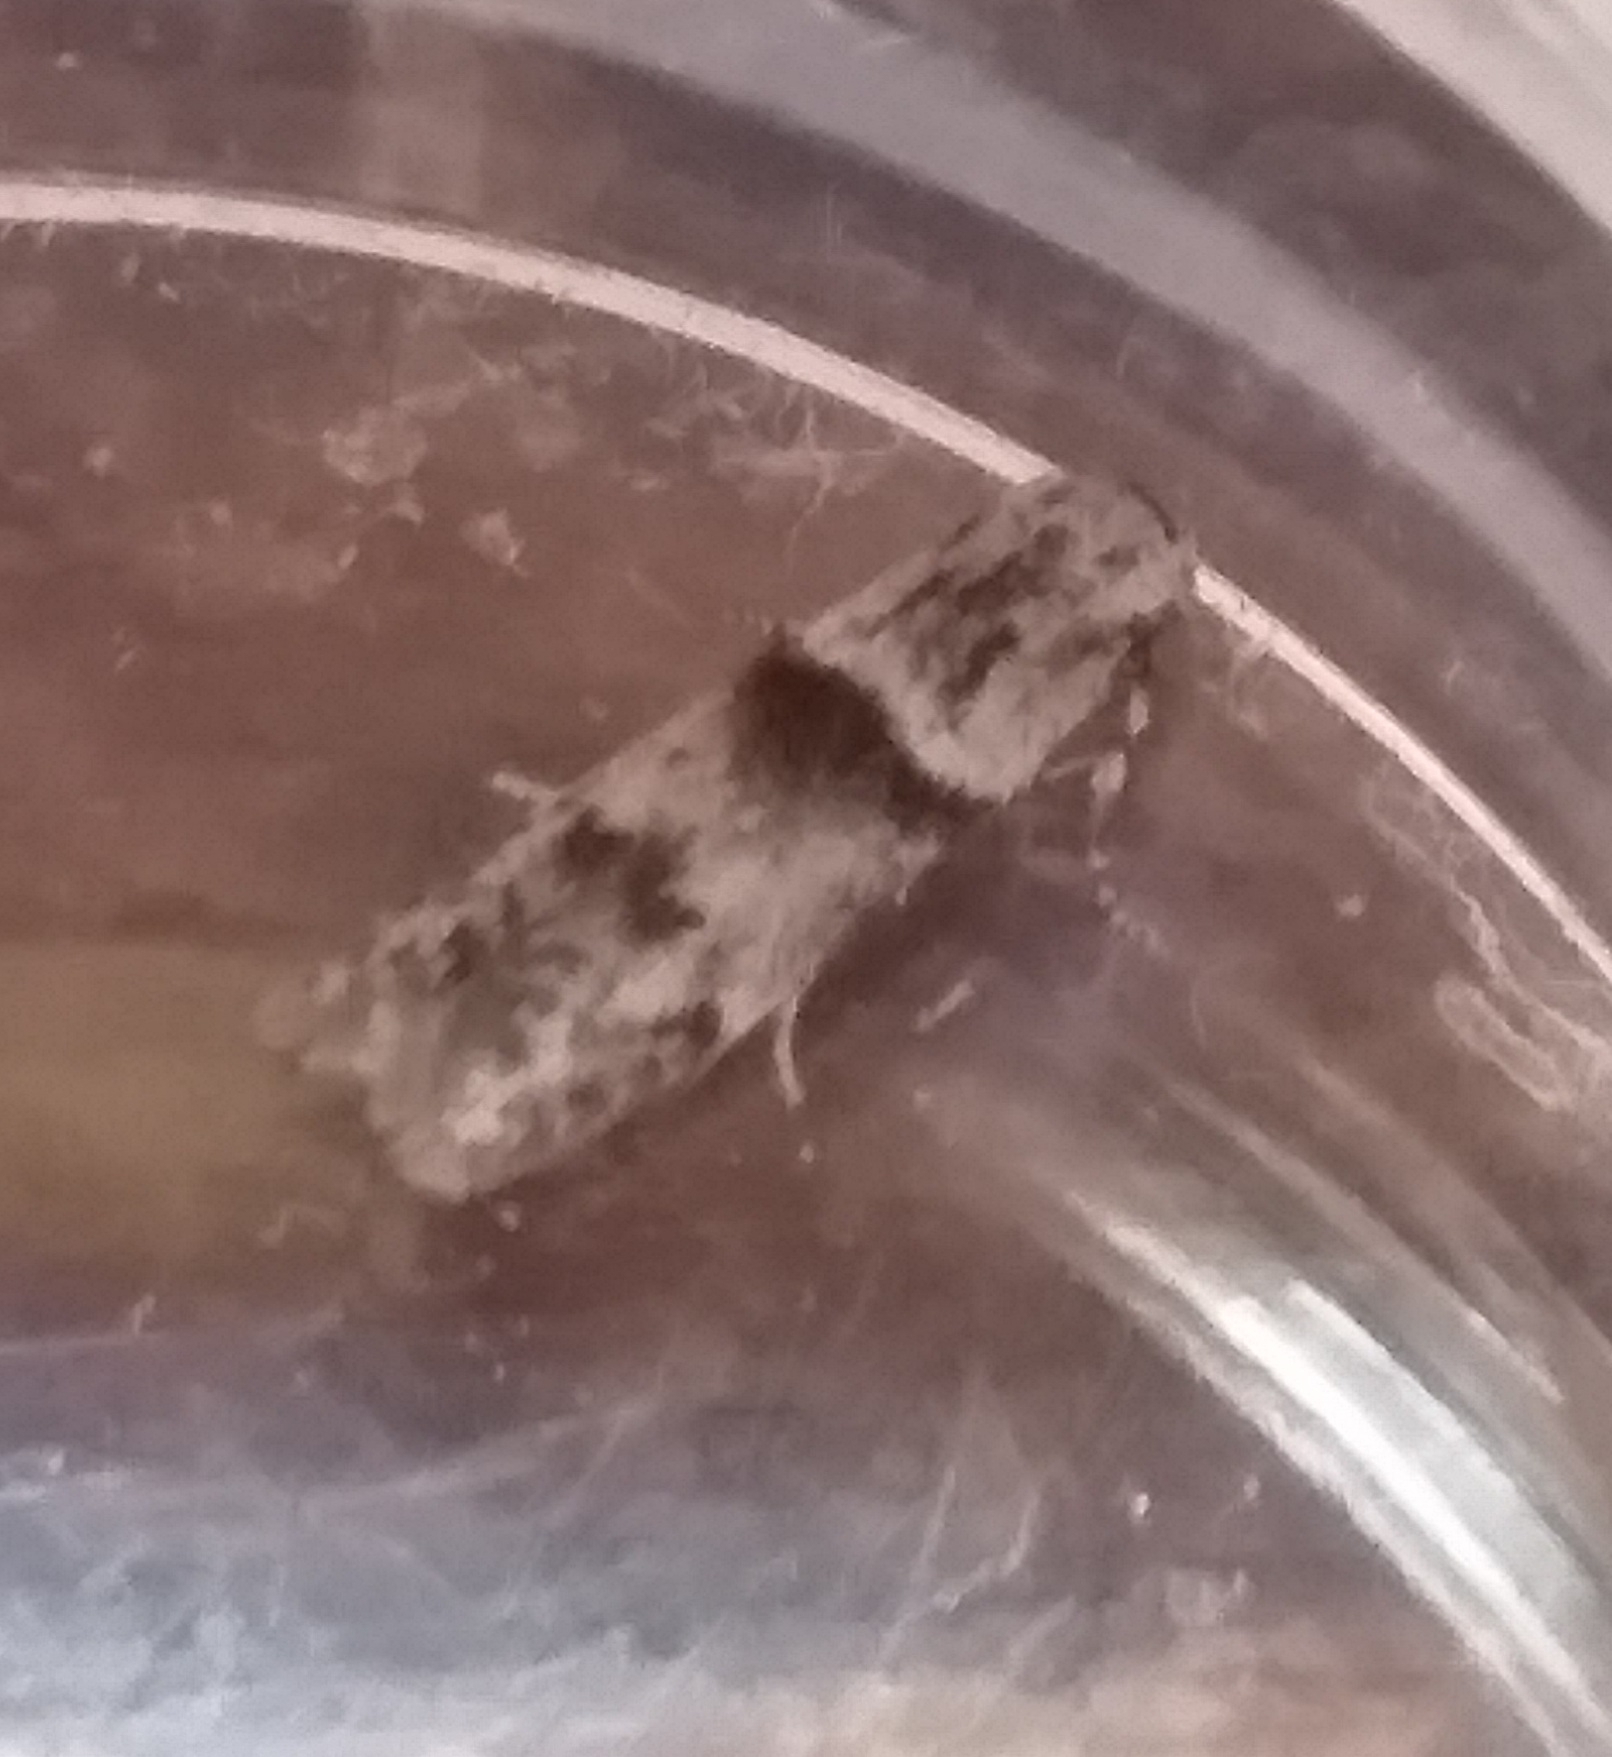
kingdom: Animalia
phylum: Arthropoda
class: Insecta
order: Lepidoptera
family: Blastobasidae
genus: Blastobasis
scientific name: Blastobasis rebeli
